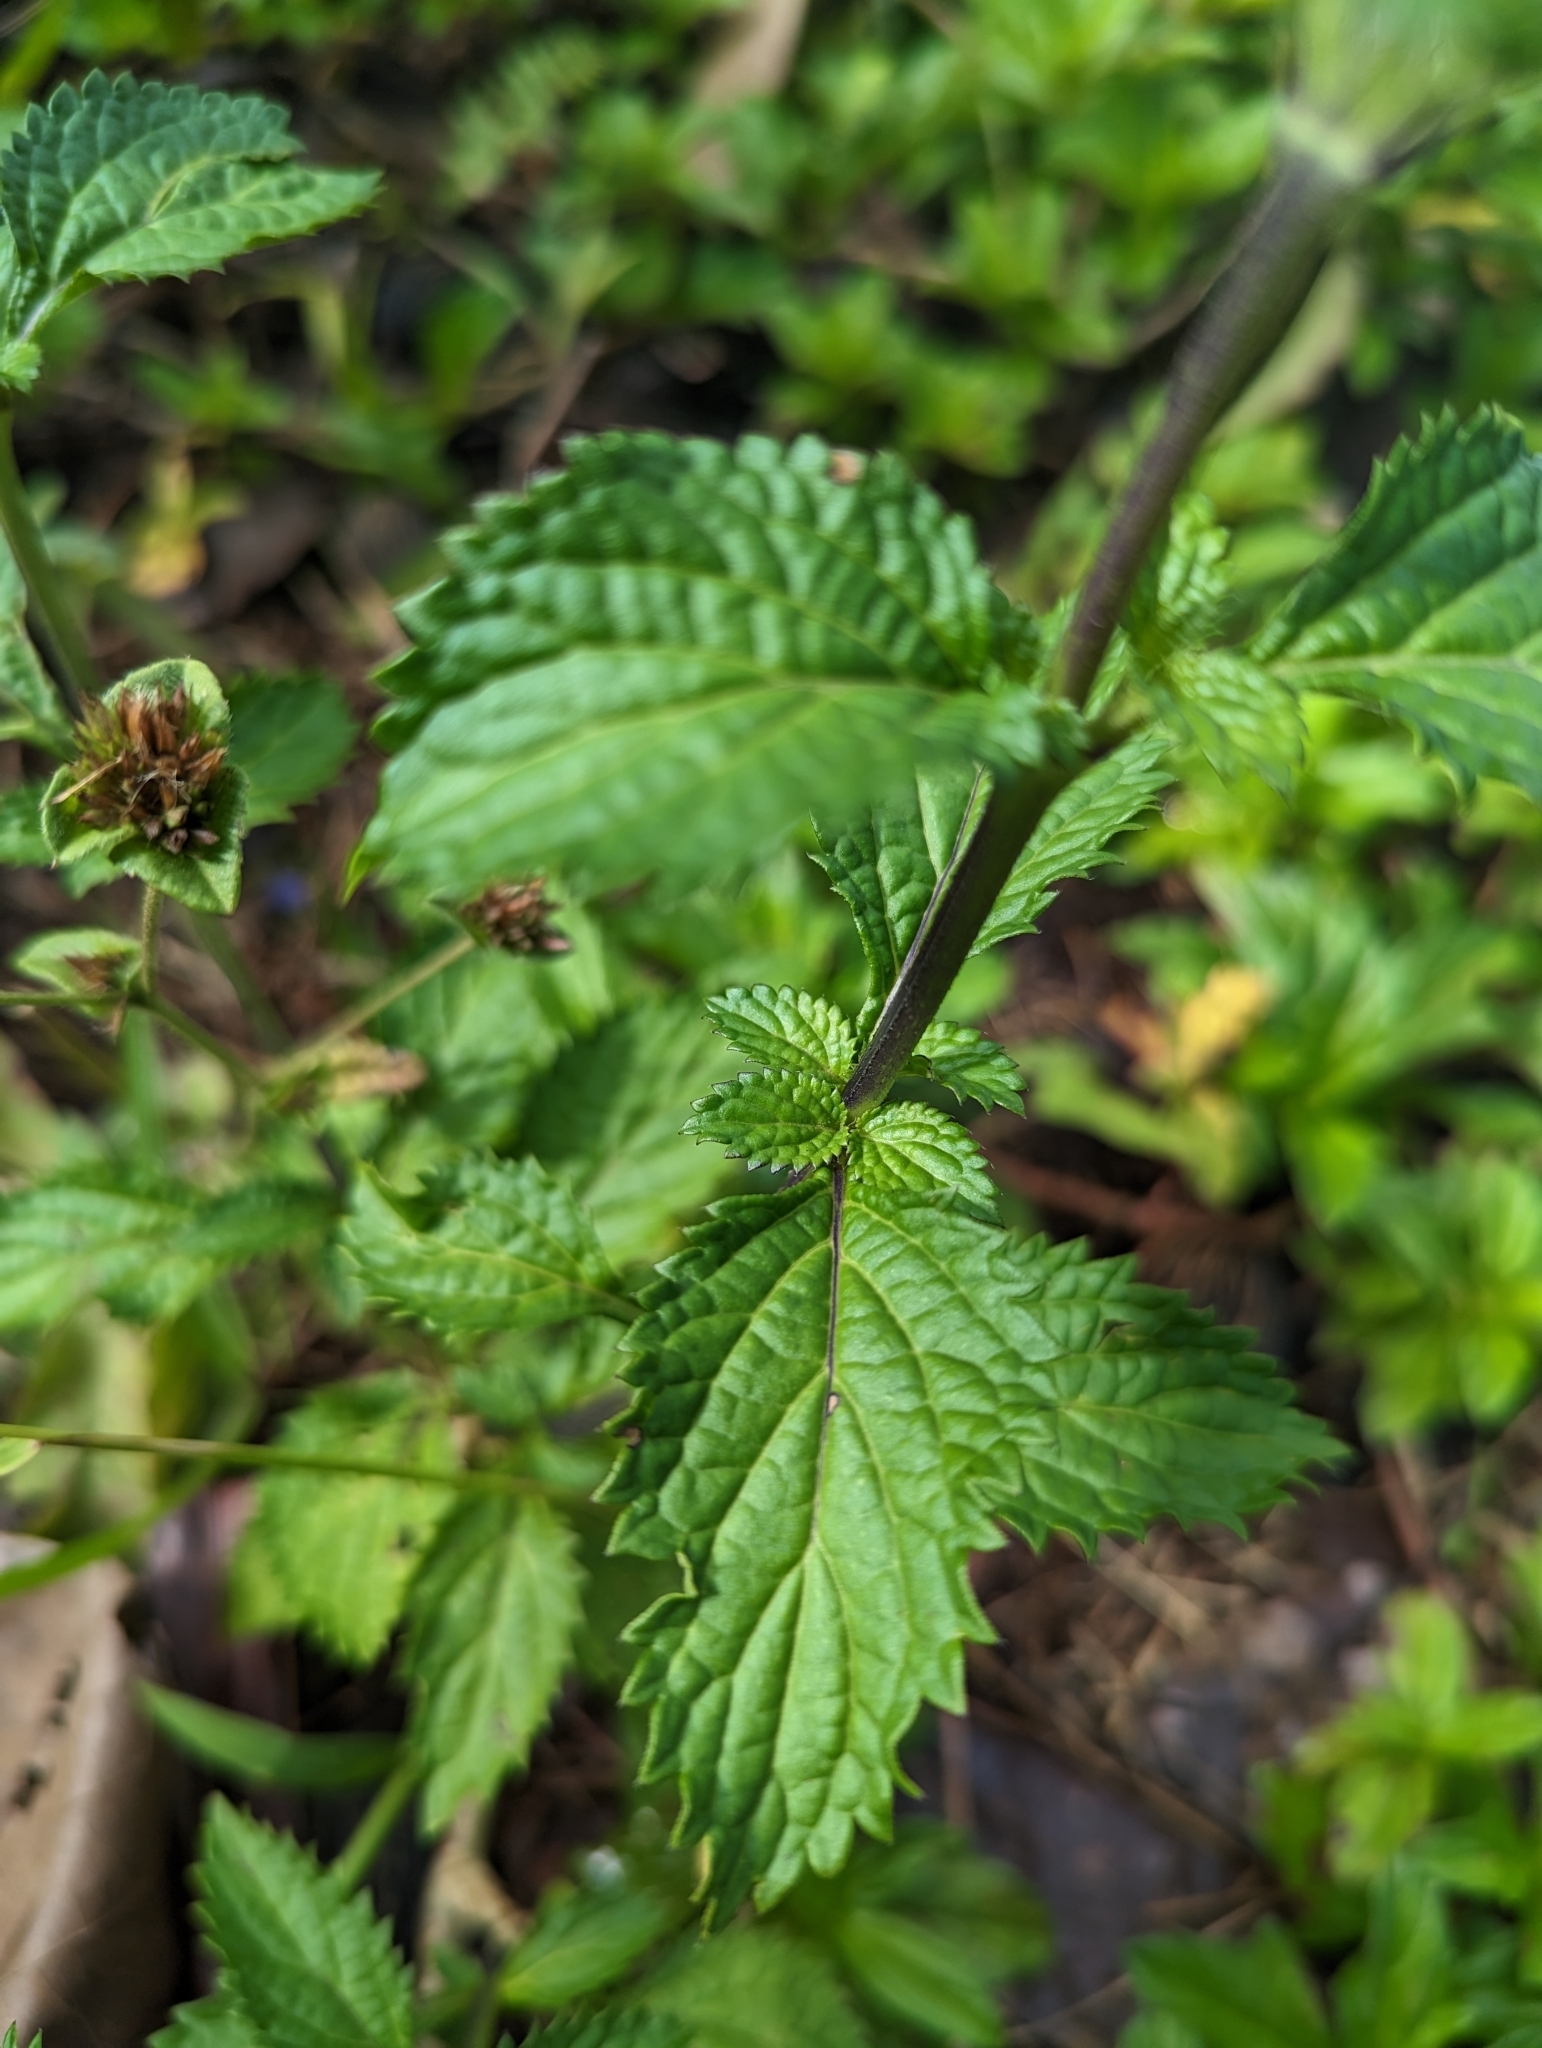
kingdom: Plantae
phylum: Tracheophyta
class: Magnoliopsida
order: Lamiales
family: Verbenaceae
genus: Stachytarpheta
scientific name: Stachytarpheta cayennensis
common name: Cayenne porterweed
